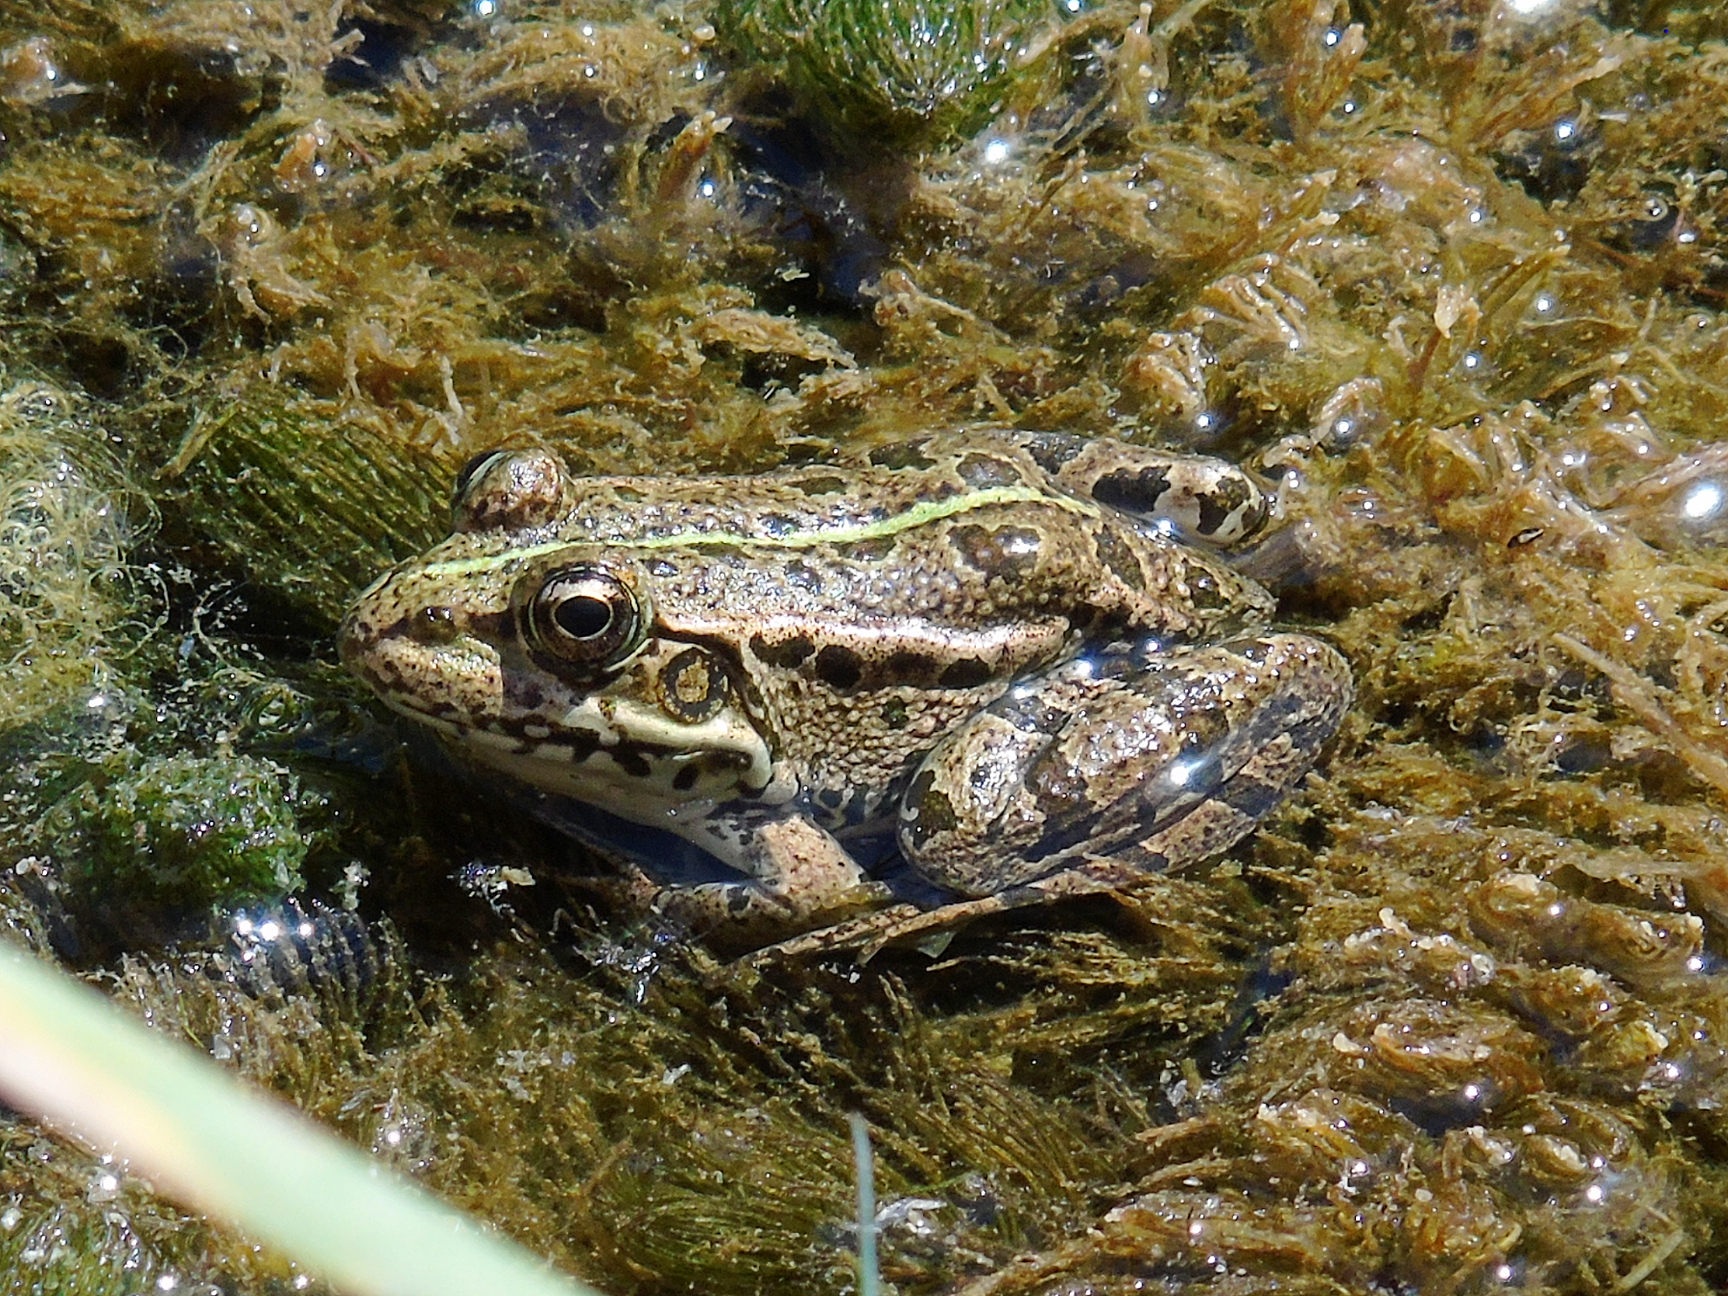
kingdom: Animalia
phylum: Chordata
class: Amphibia
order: Anura
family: Ranidae
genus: Pelophylax
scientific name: Pelophylax ridibundus
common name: Marsh frog
